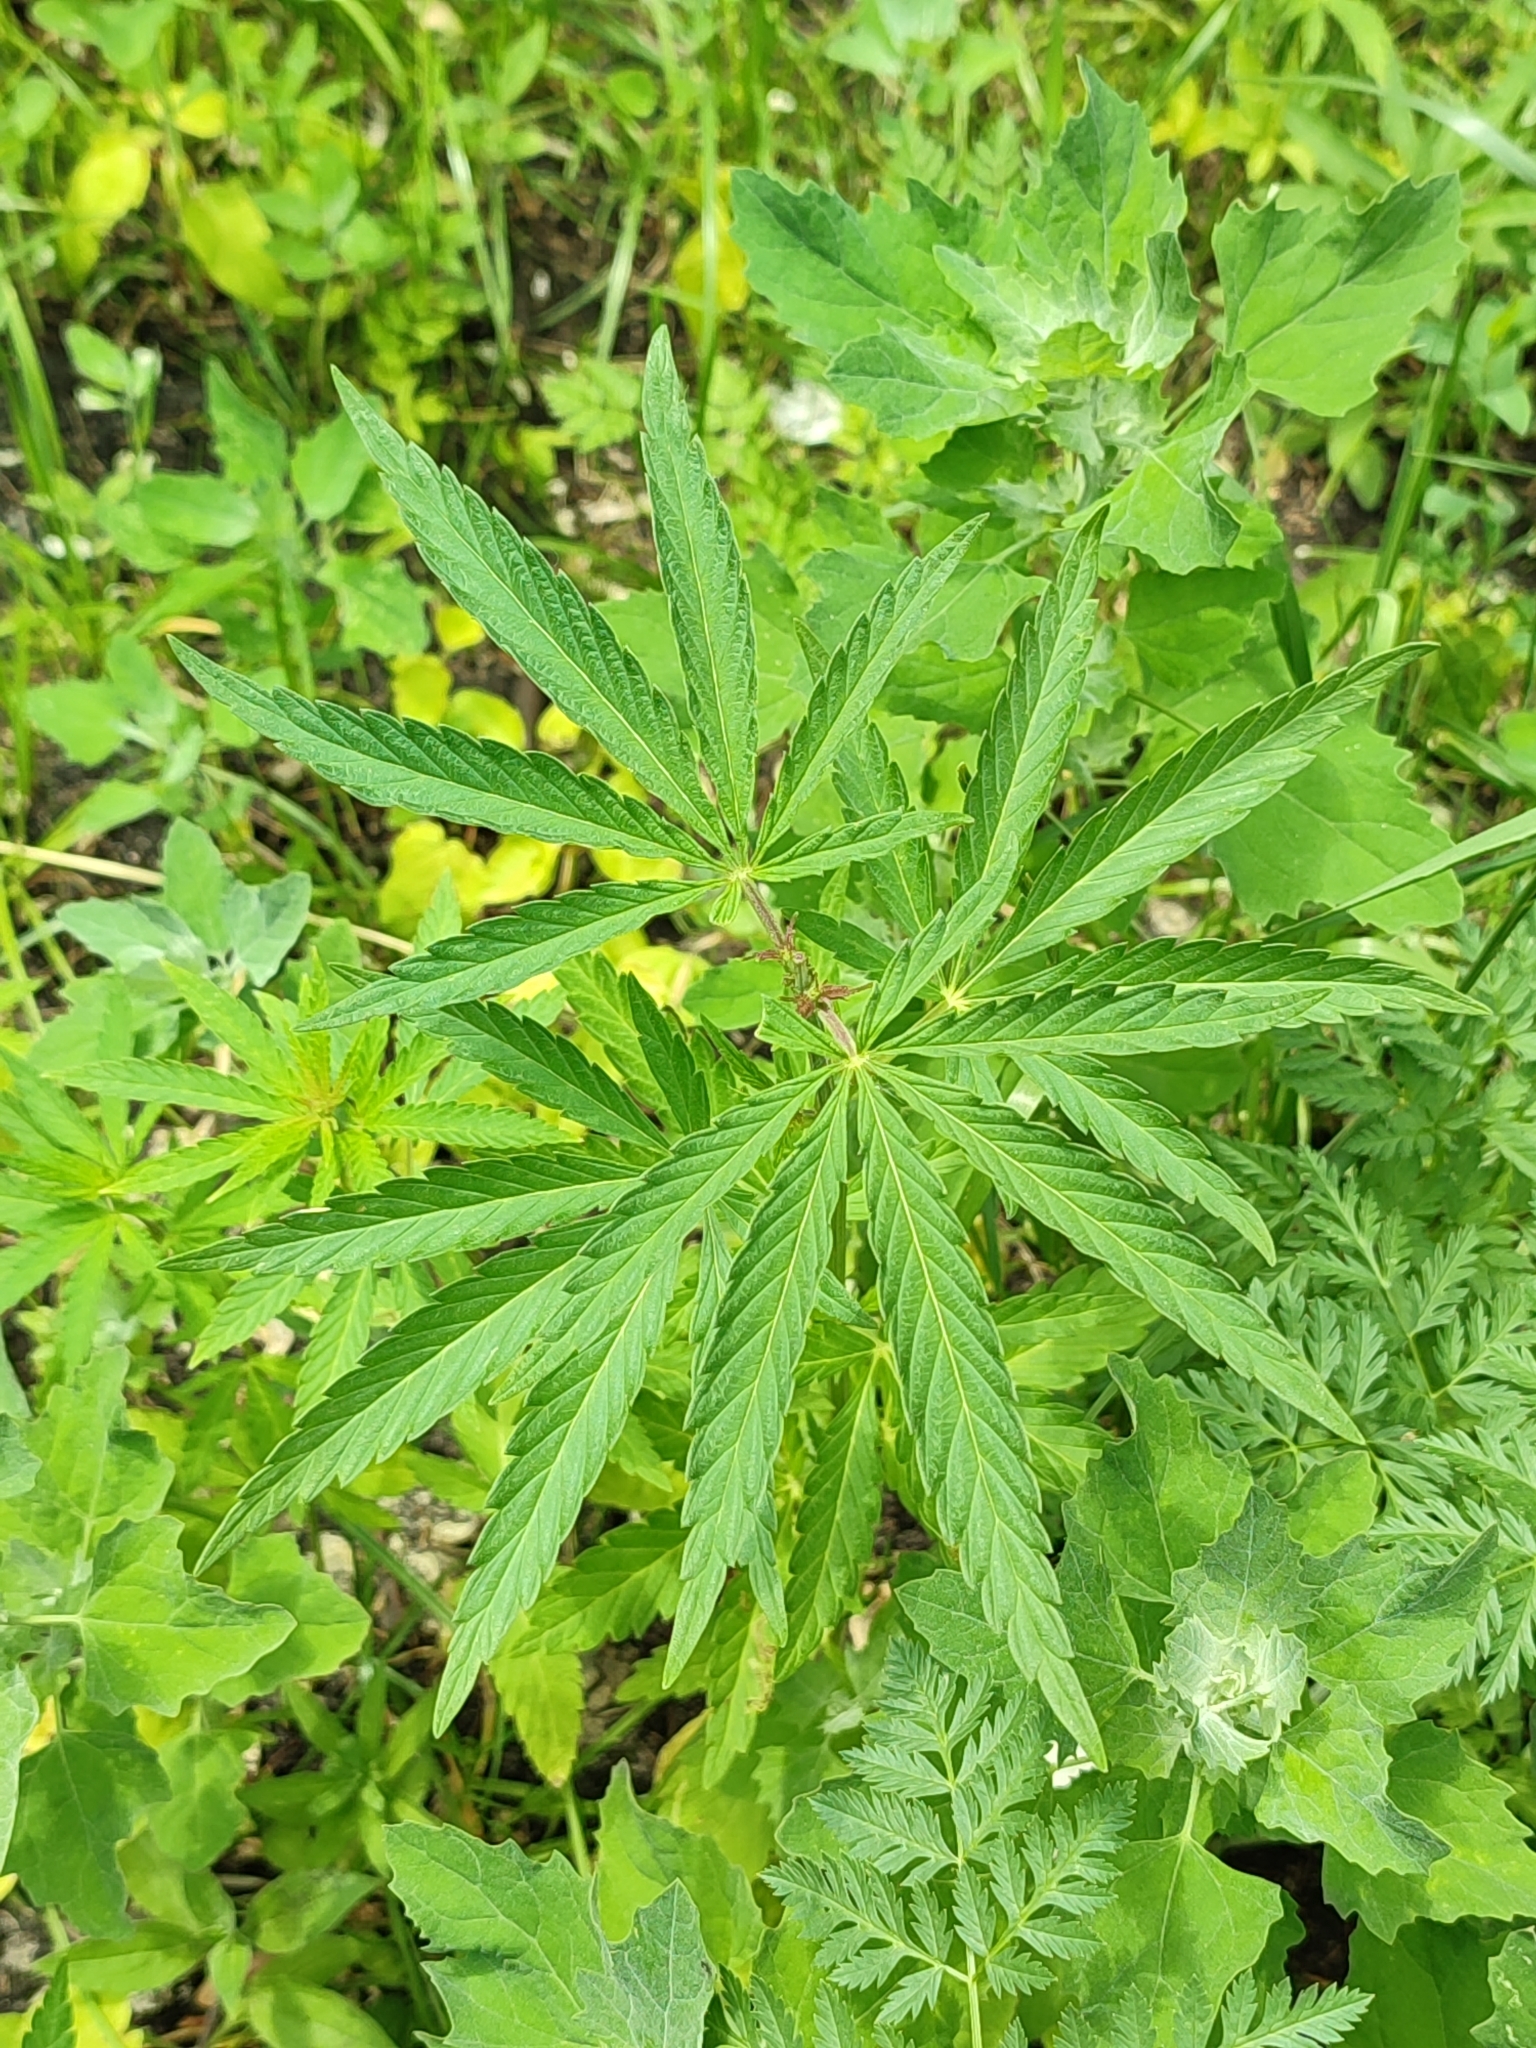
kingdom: Plantae
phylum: Tracheophyta
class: Magnoliopsida
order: Rosales
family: Cannabaceae
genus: Cannabis
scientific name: Cannabis sativa
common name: Hemp
